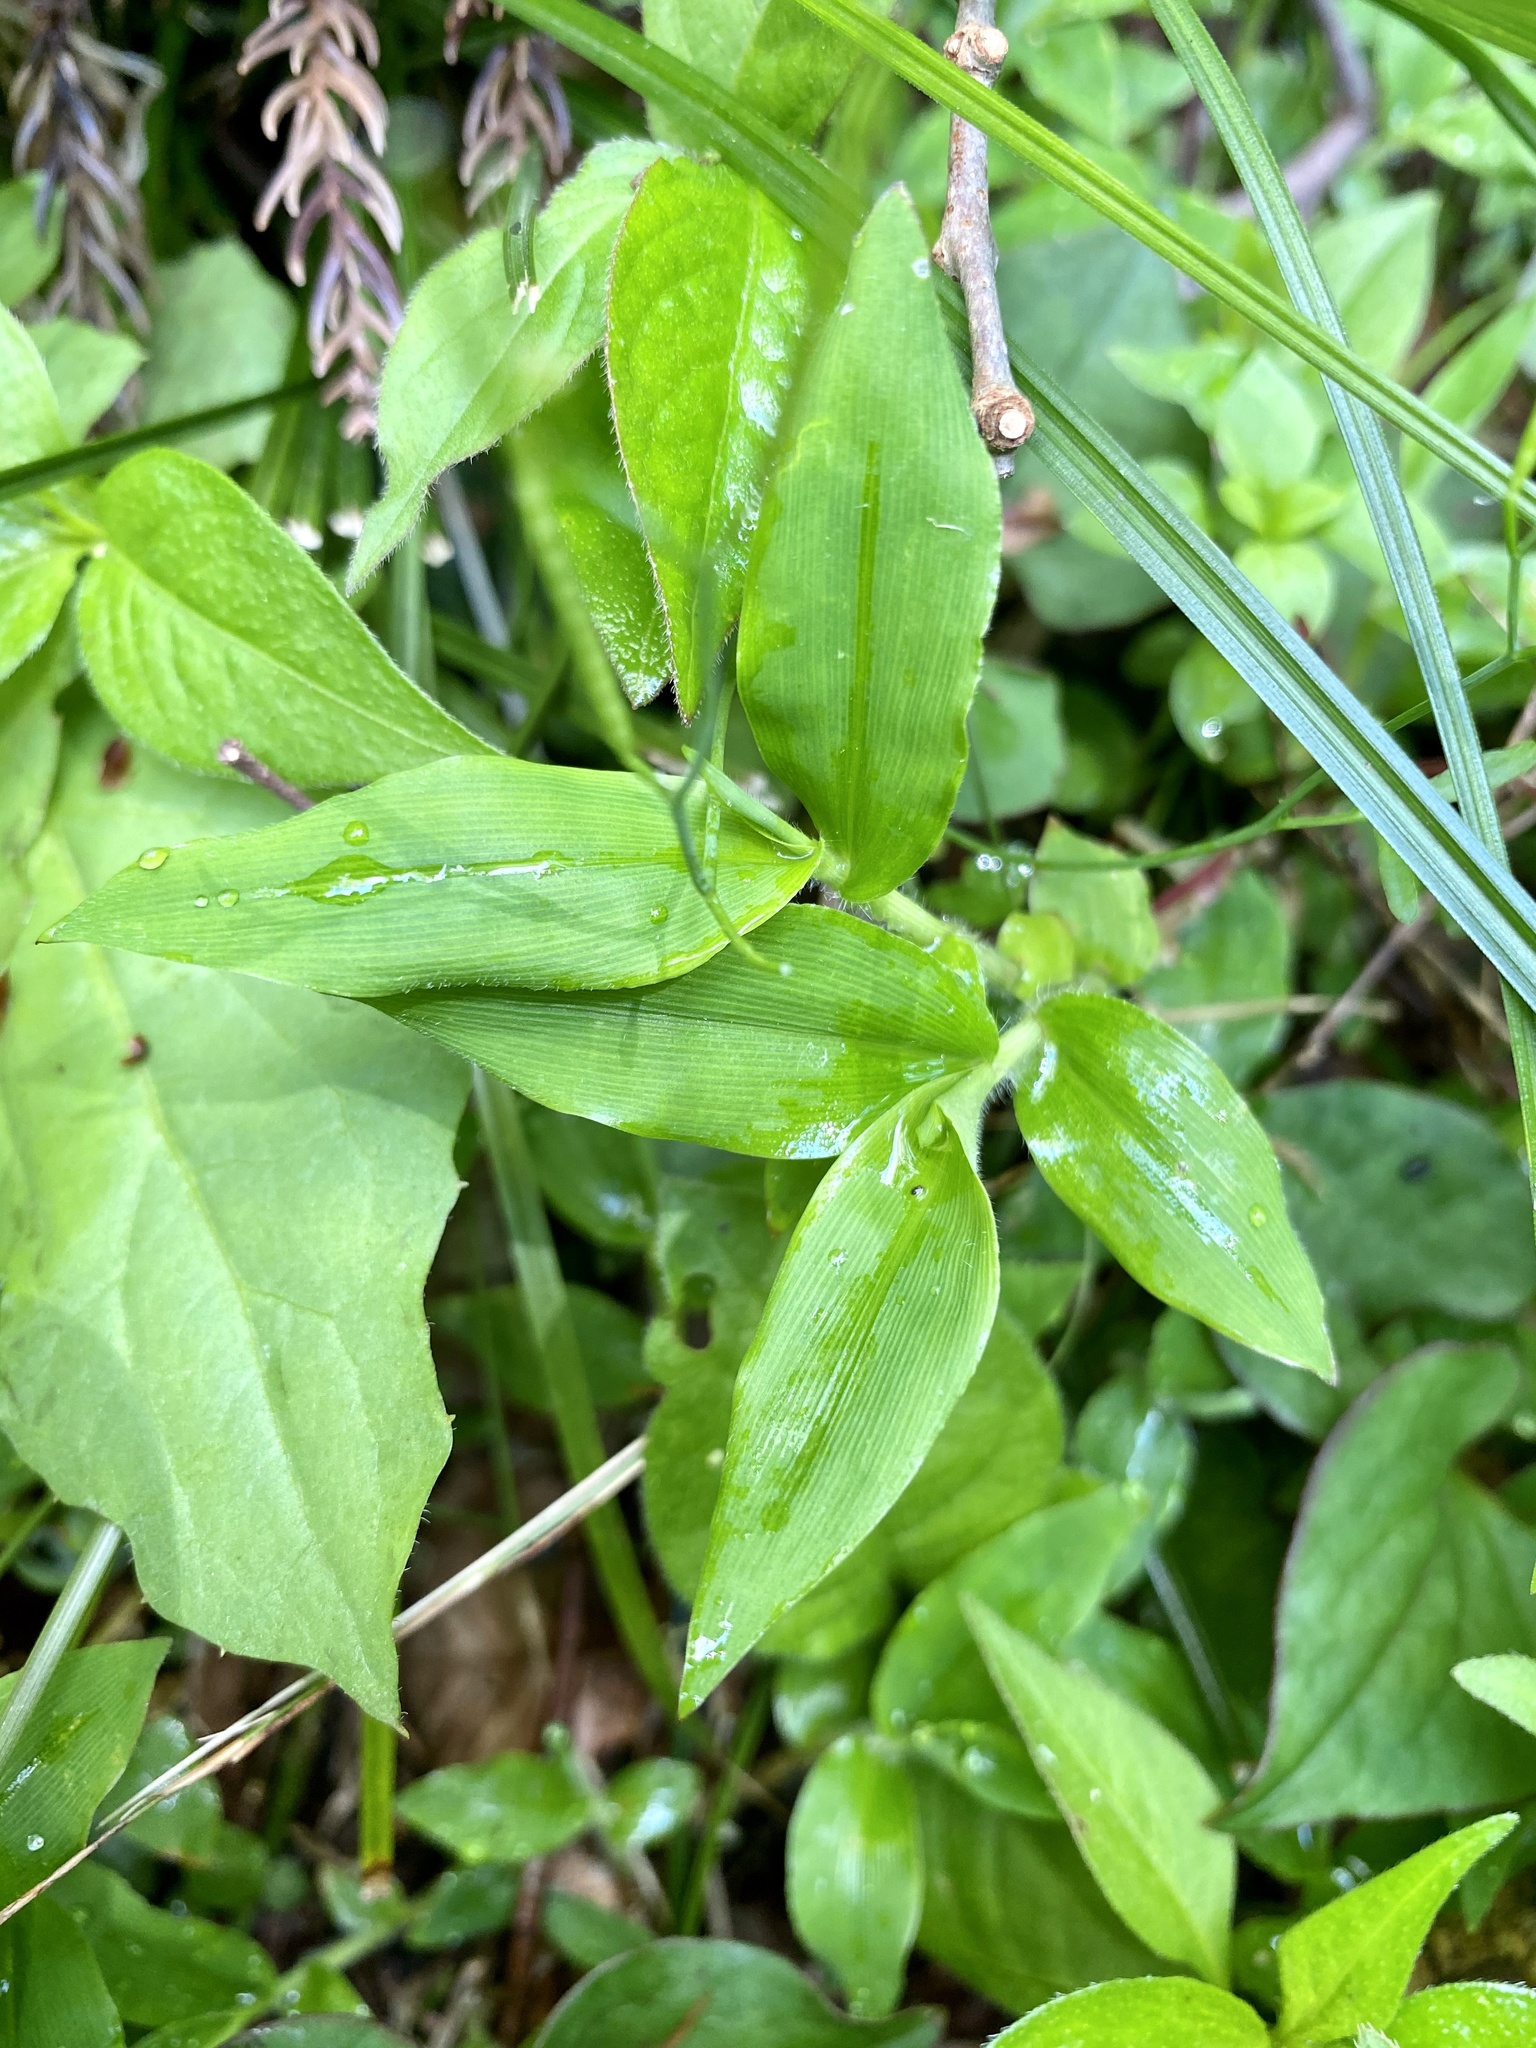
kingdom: Plantae
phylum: Tracheophyta
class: Liliopsida
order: Poales
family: Poaceae
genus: Oplismenus
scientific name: Oplismenus undulatifolius
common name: Wavyleaf basketgrass
